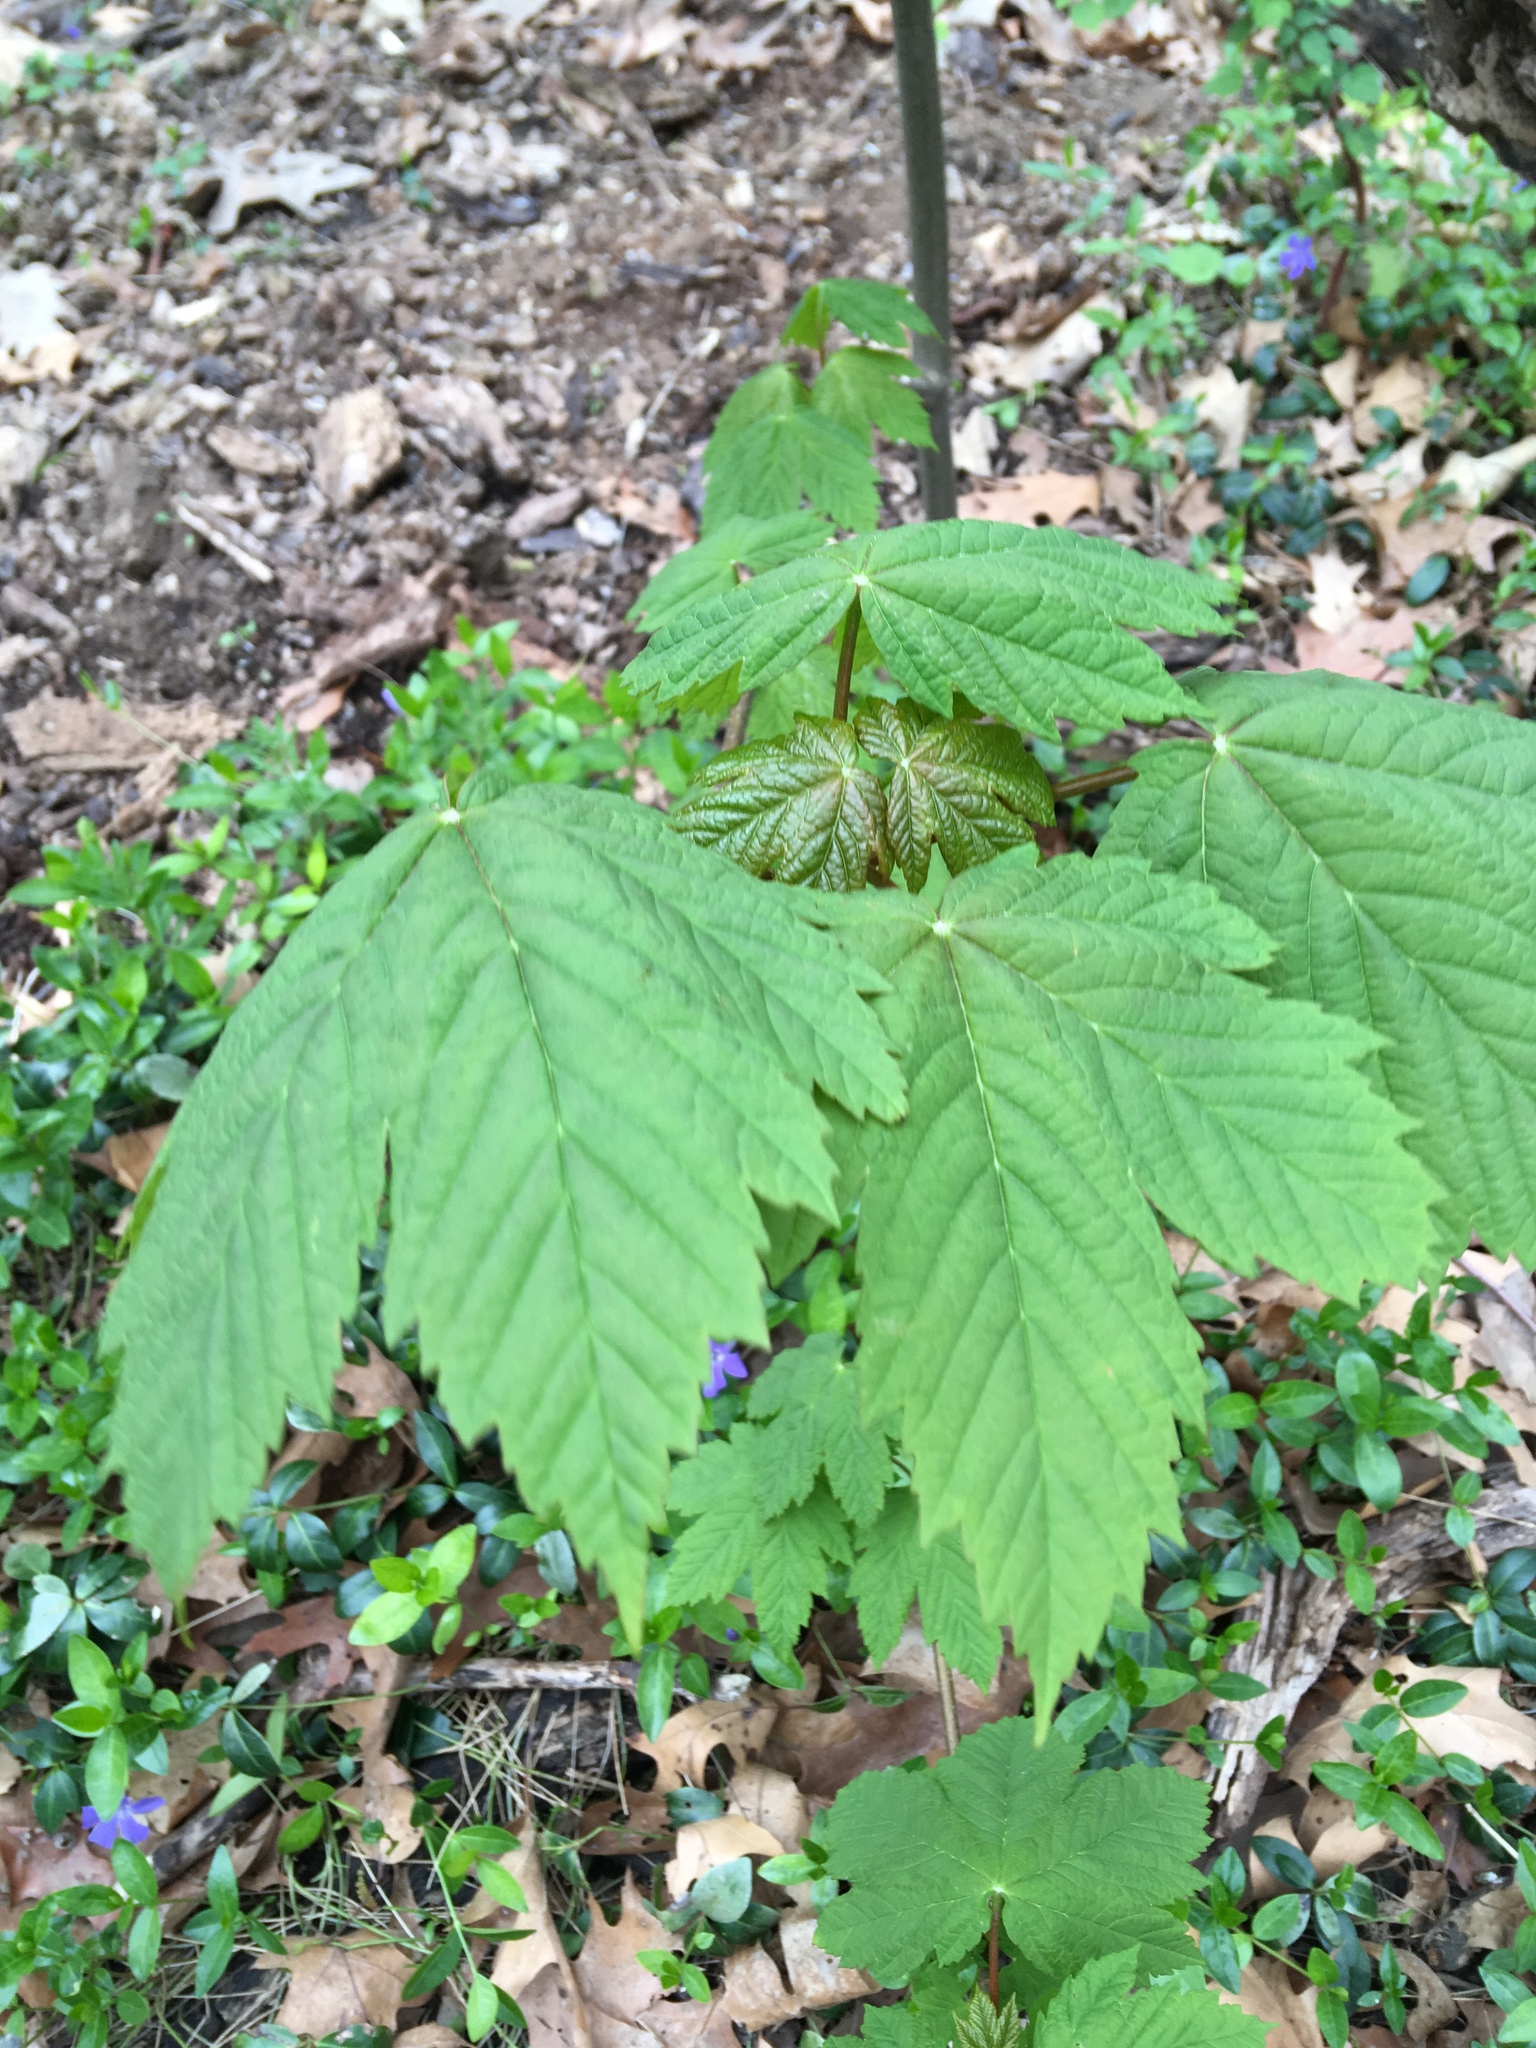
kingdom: Plantae
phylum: Tracheophyta
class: Magnoliopsida
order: Sapindales
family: Sapindaceae
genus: Acer
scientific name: Acer pseudoplatanus
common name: Sycamore
